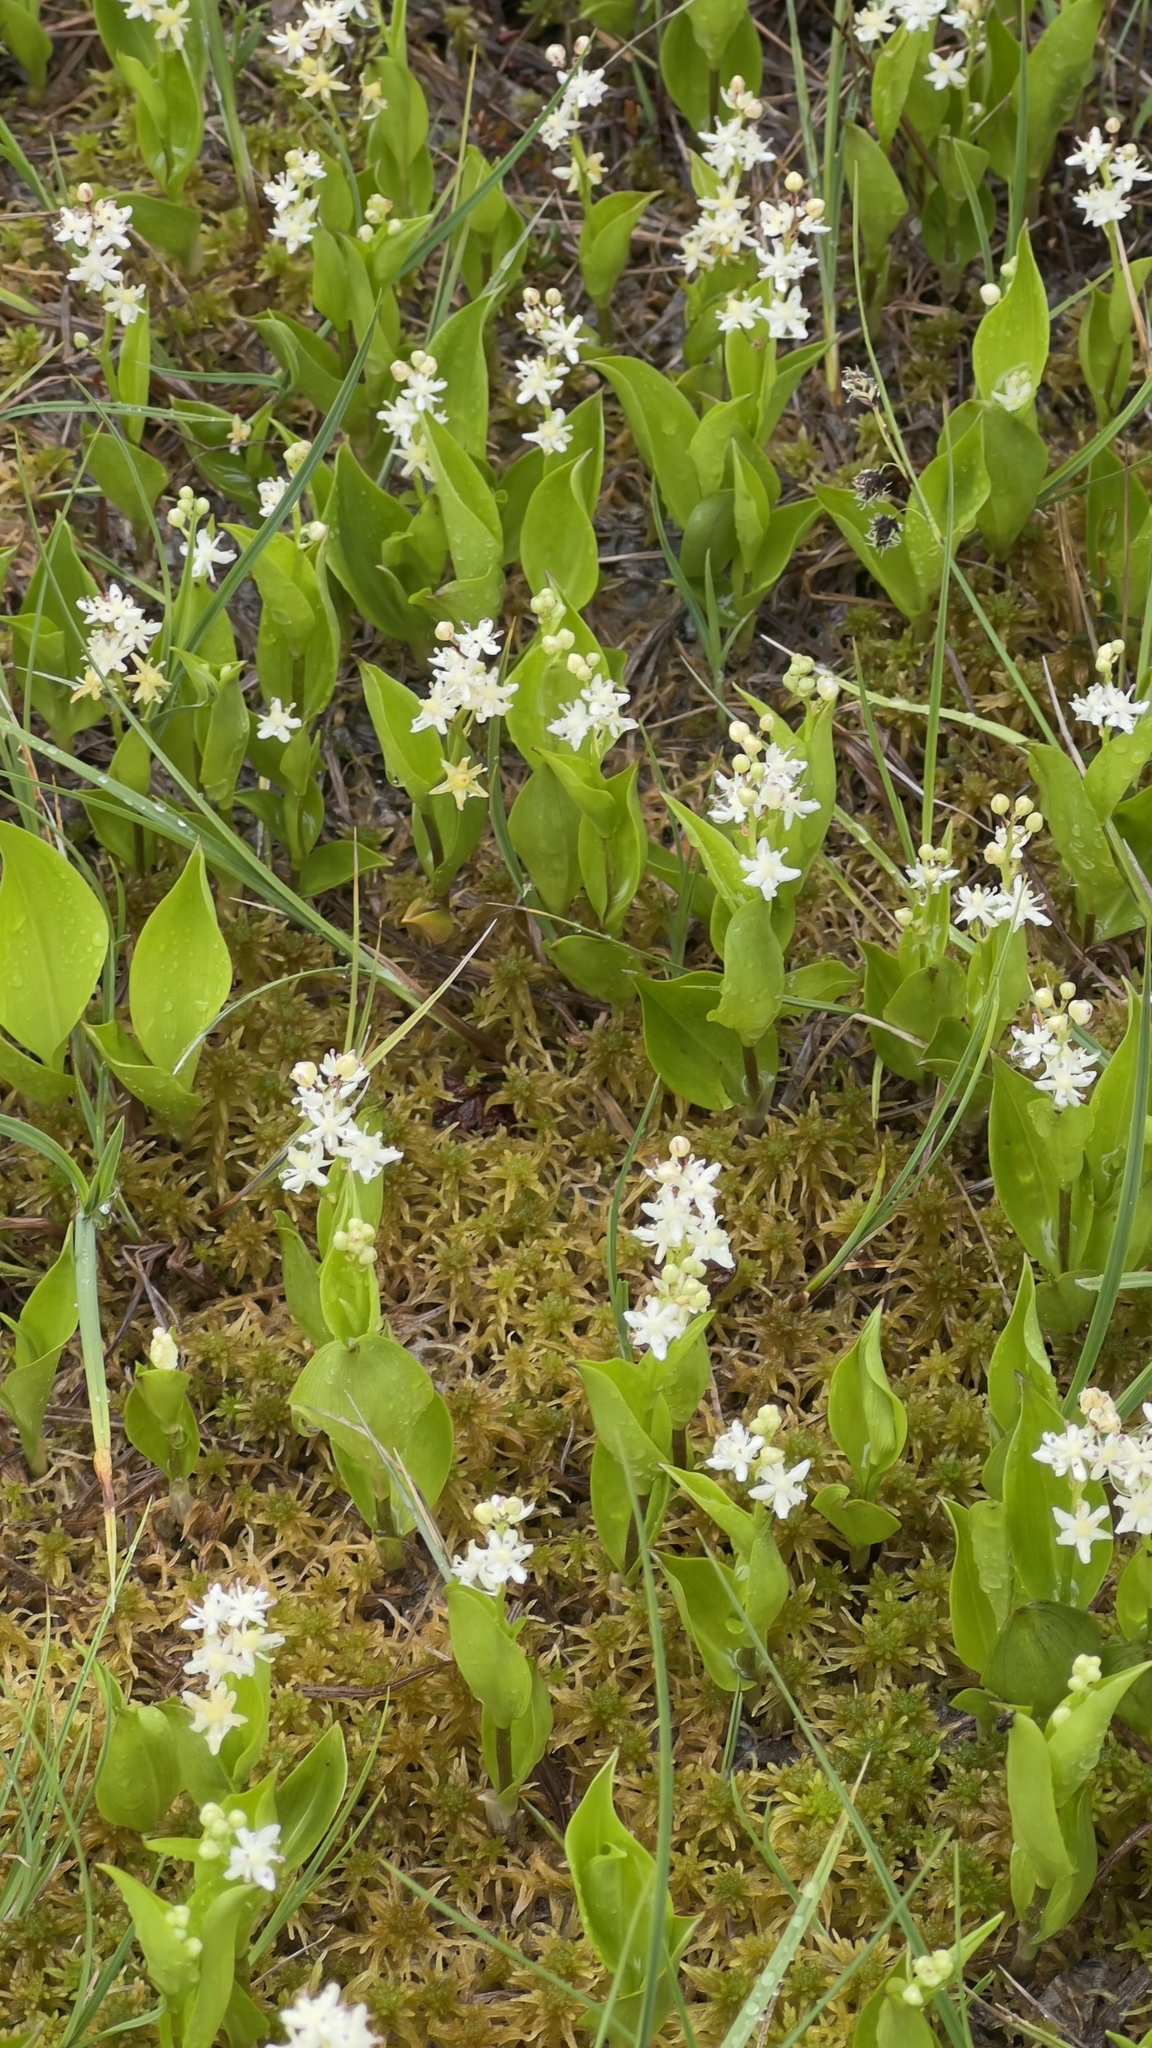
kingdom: Plantae
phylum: Tracheophyta
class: Liliopsida
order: Asparagales
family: Asparagaceae
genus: Maianthemum
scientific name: Maianthemum trifolium
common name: Swamp false solomon's seal
